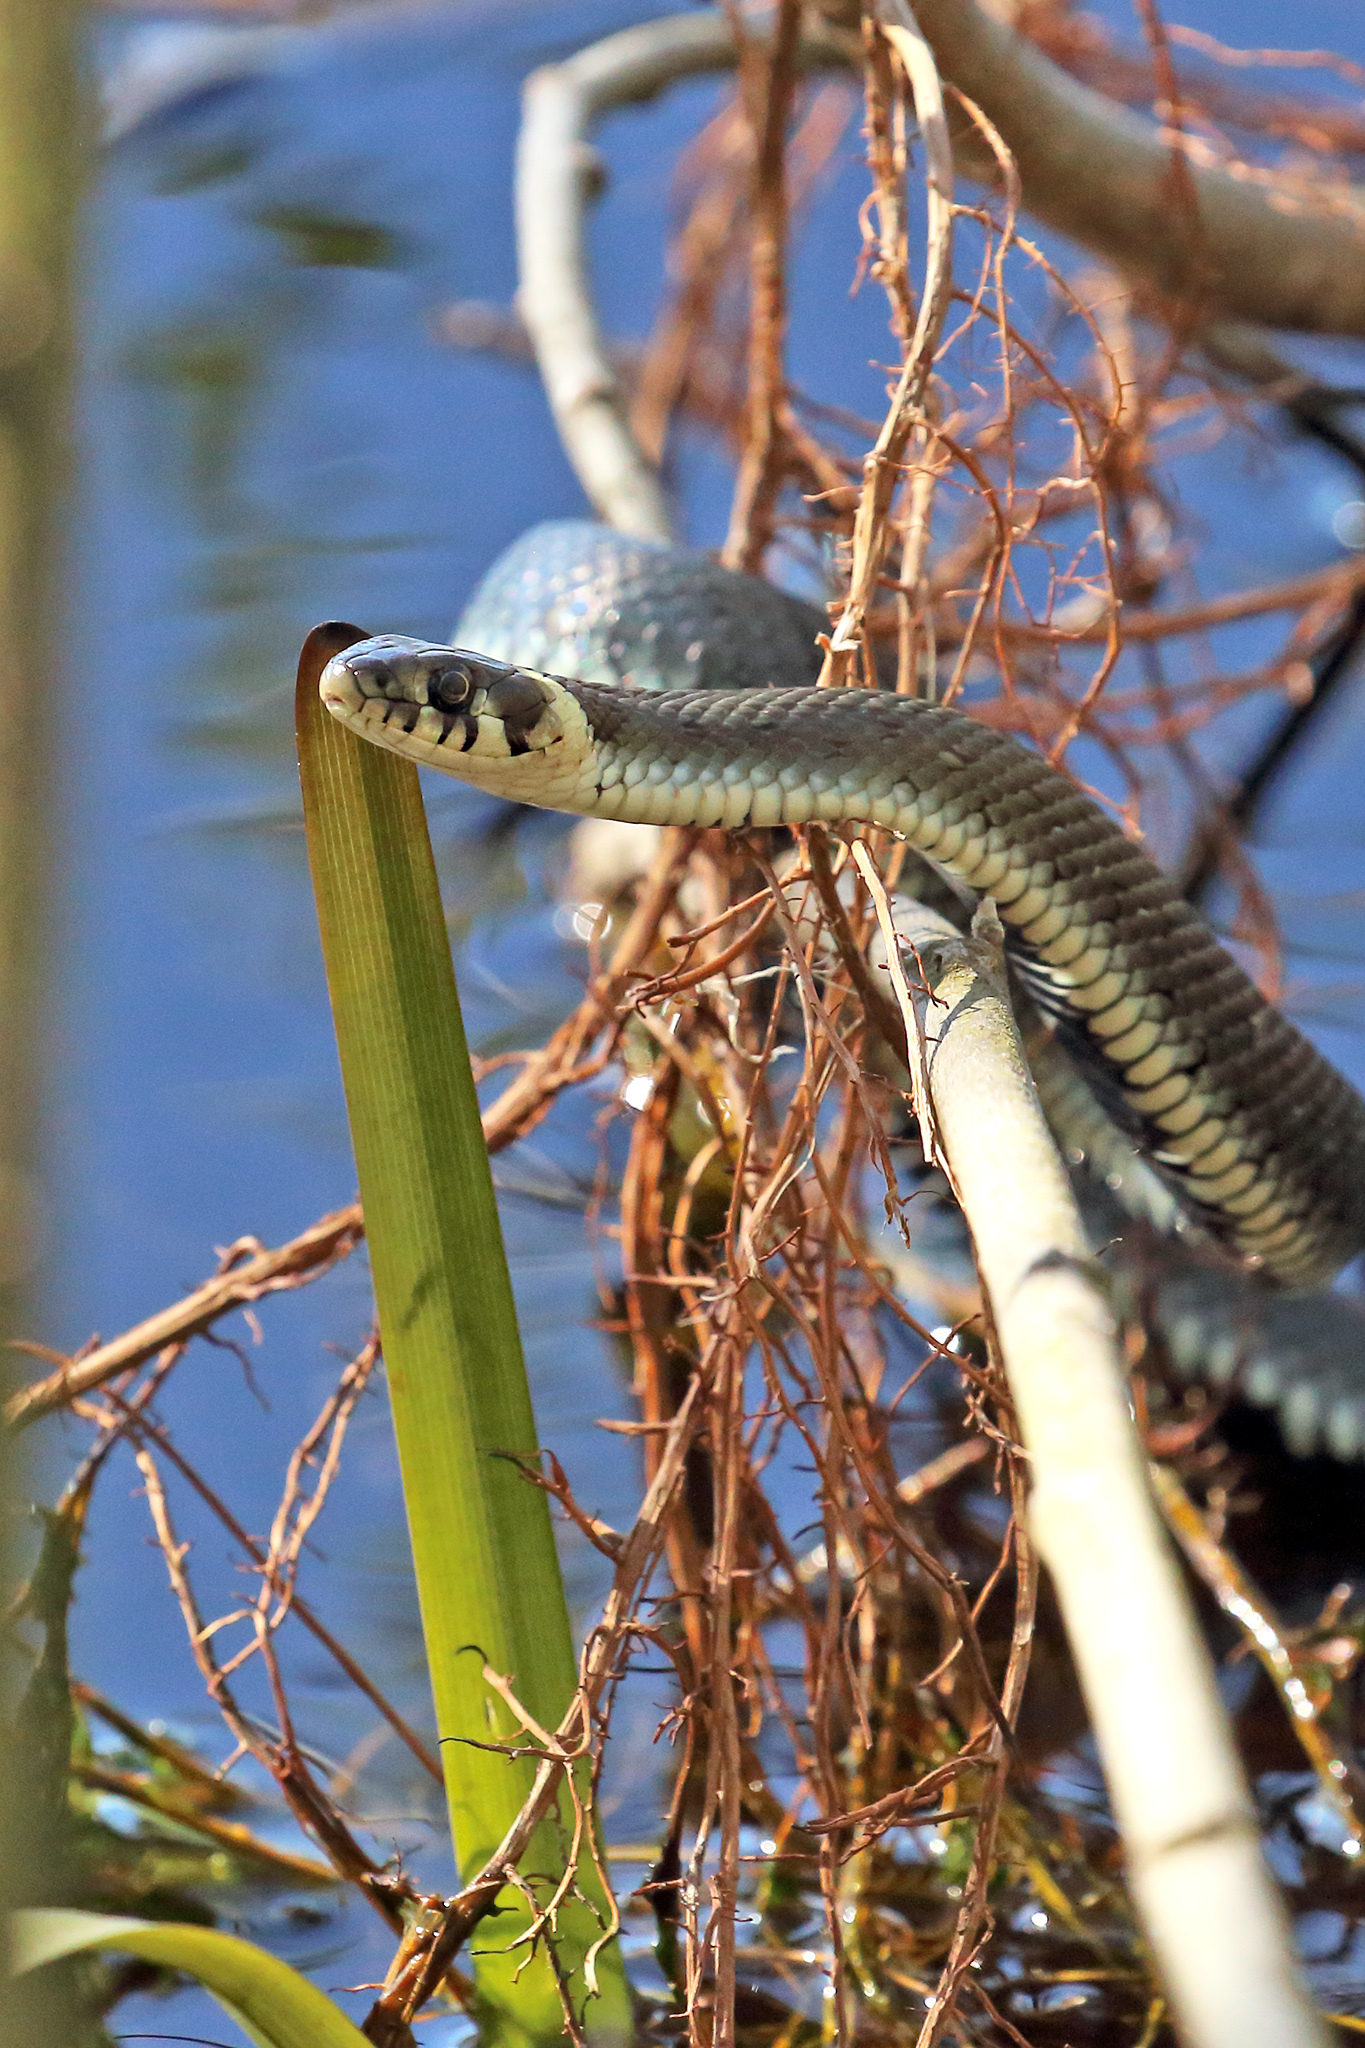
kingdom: Animalia
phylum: Chordata
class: Squamata
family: Colubridae
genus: Natrix
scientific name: Natrix natrix
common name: Grass snake
